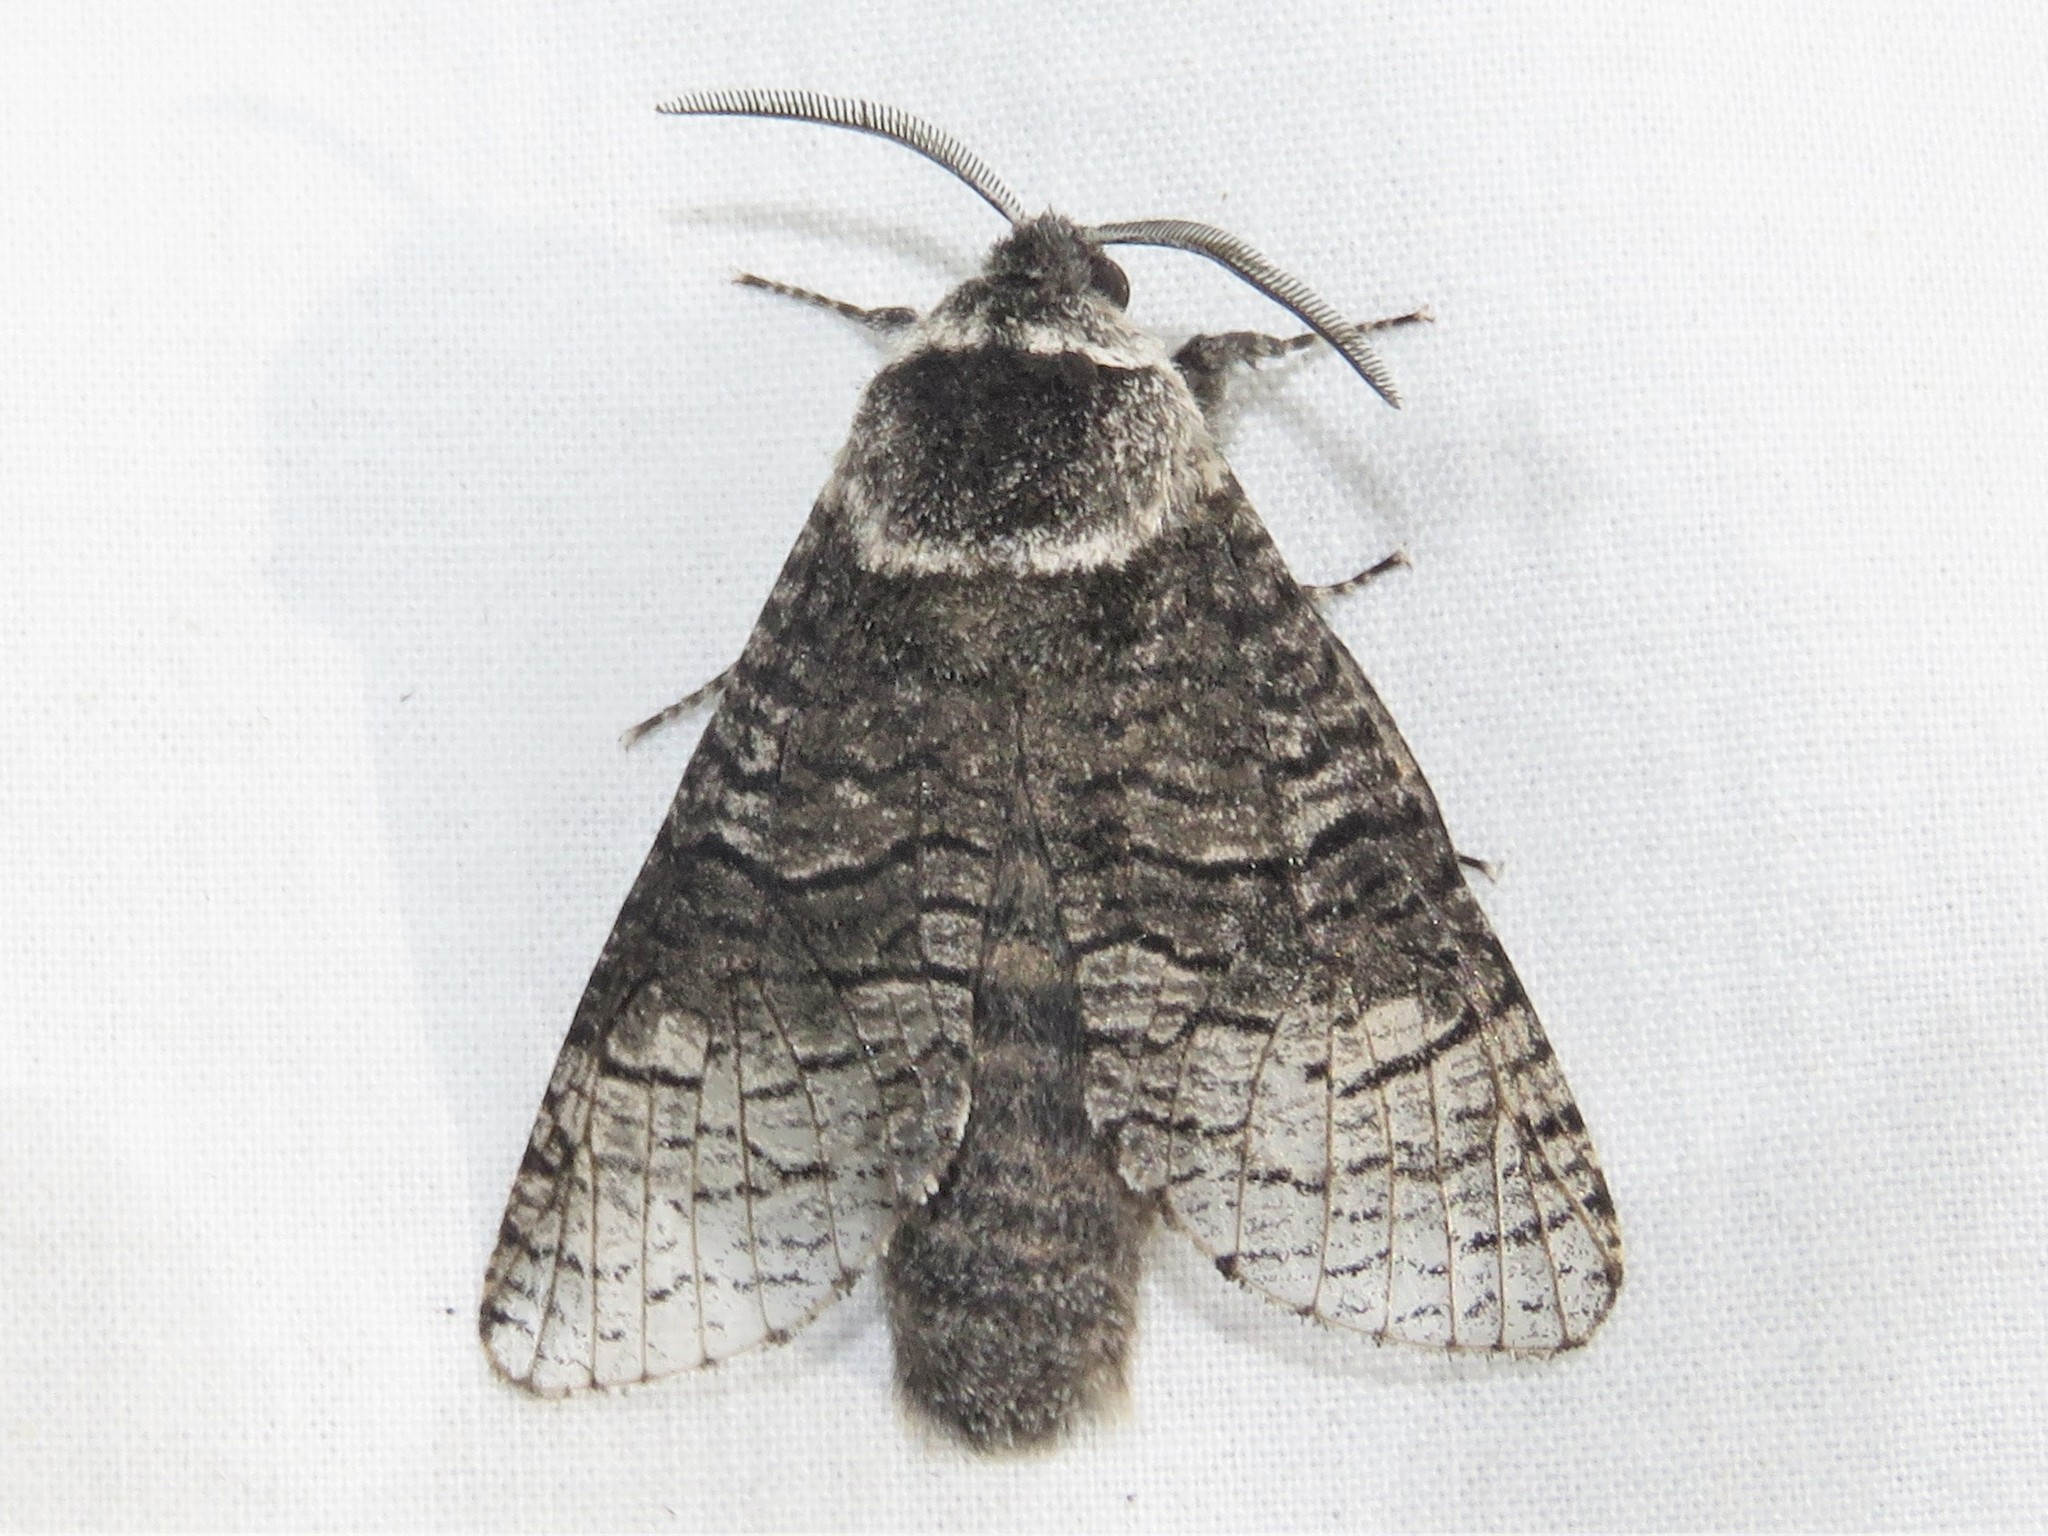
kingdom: Animalia
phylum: Arthropoda
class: Insecta
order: Lepidoptera
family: Cossidae
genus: Acossus
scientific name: Acossus centerensis
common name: Poplar carpenterworm moth
